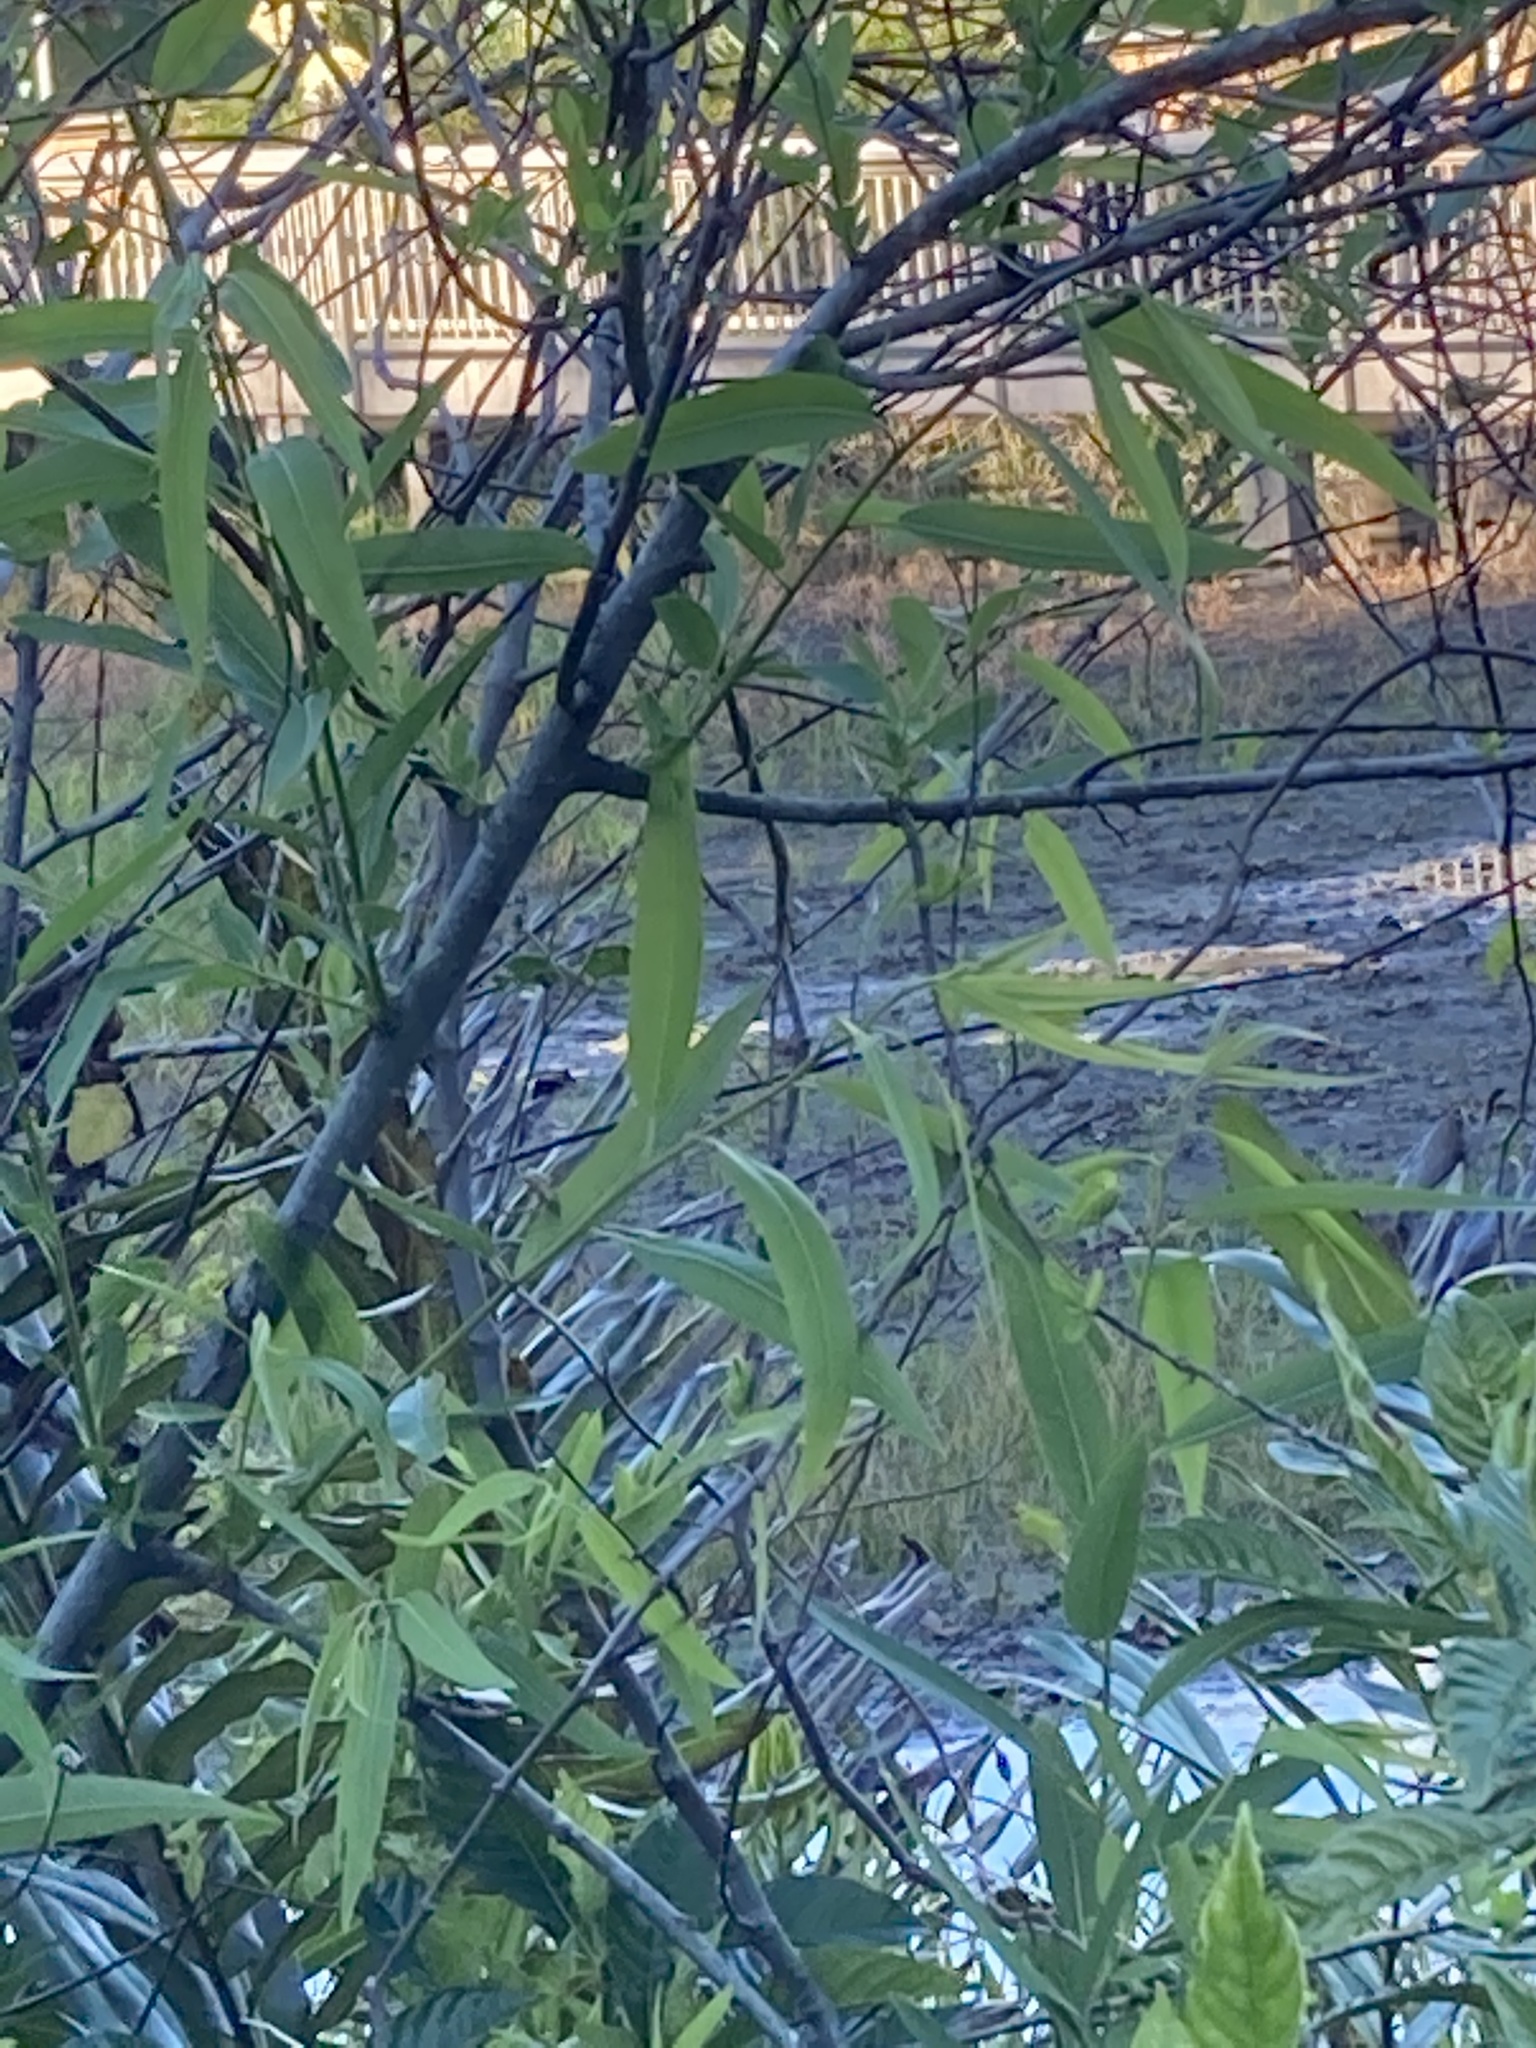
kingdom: Plantae
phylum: Tracheophyta
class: Magnoliopsida
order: Malpighiales
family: Salicaceae
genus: Salix
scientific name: Salix caroliniana
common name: Carolina willow
